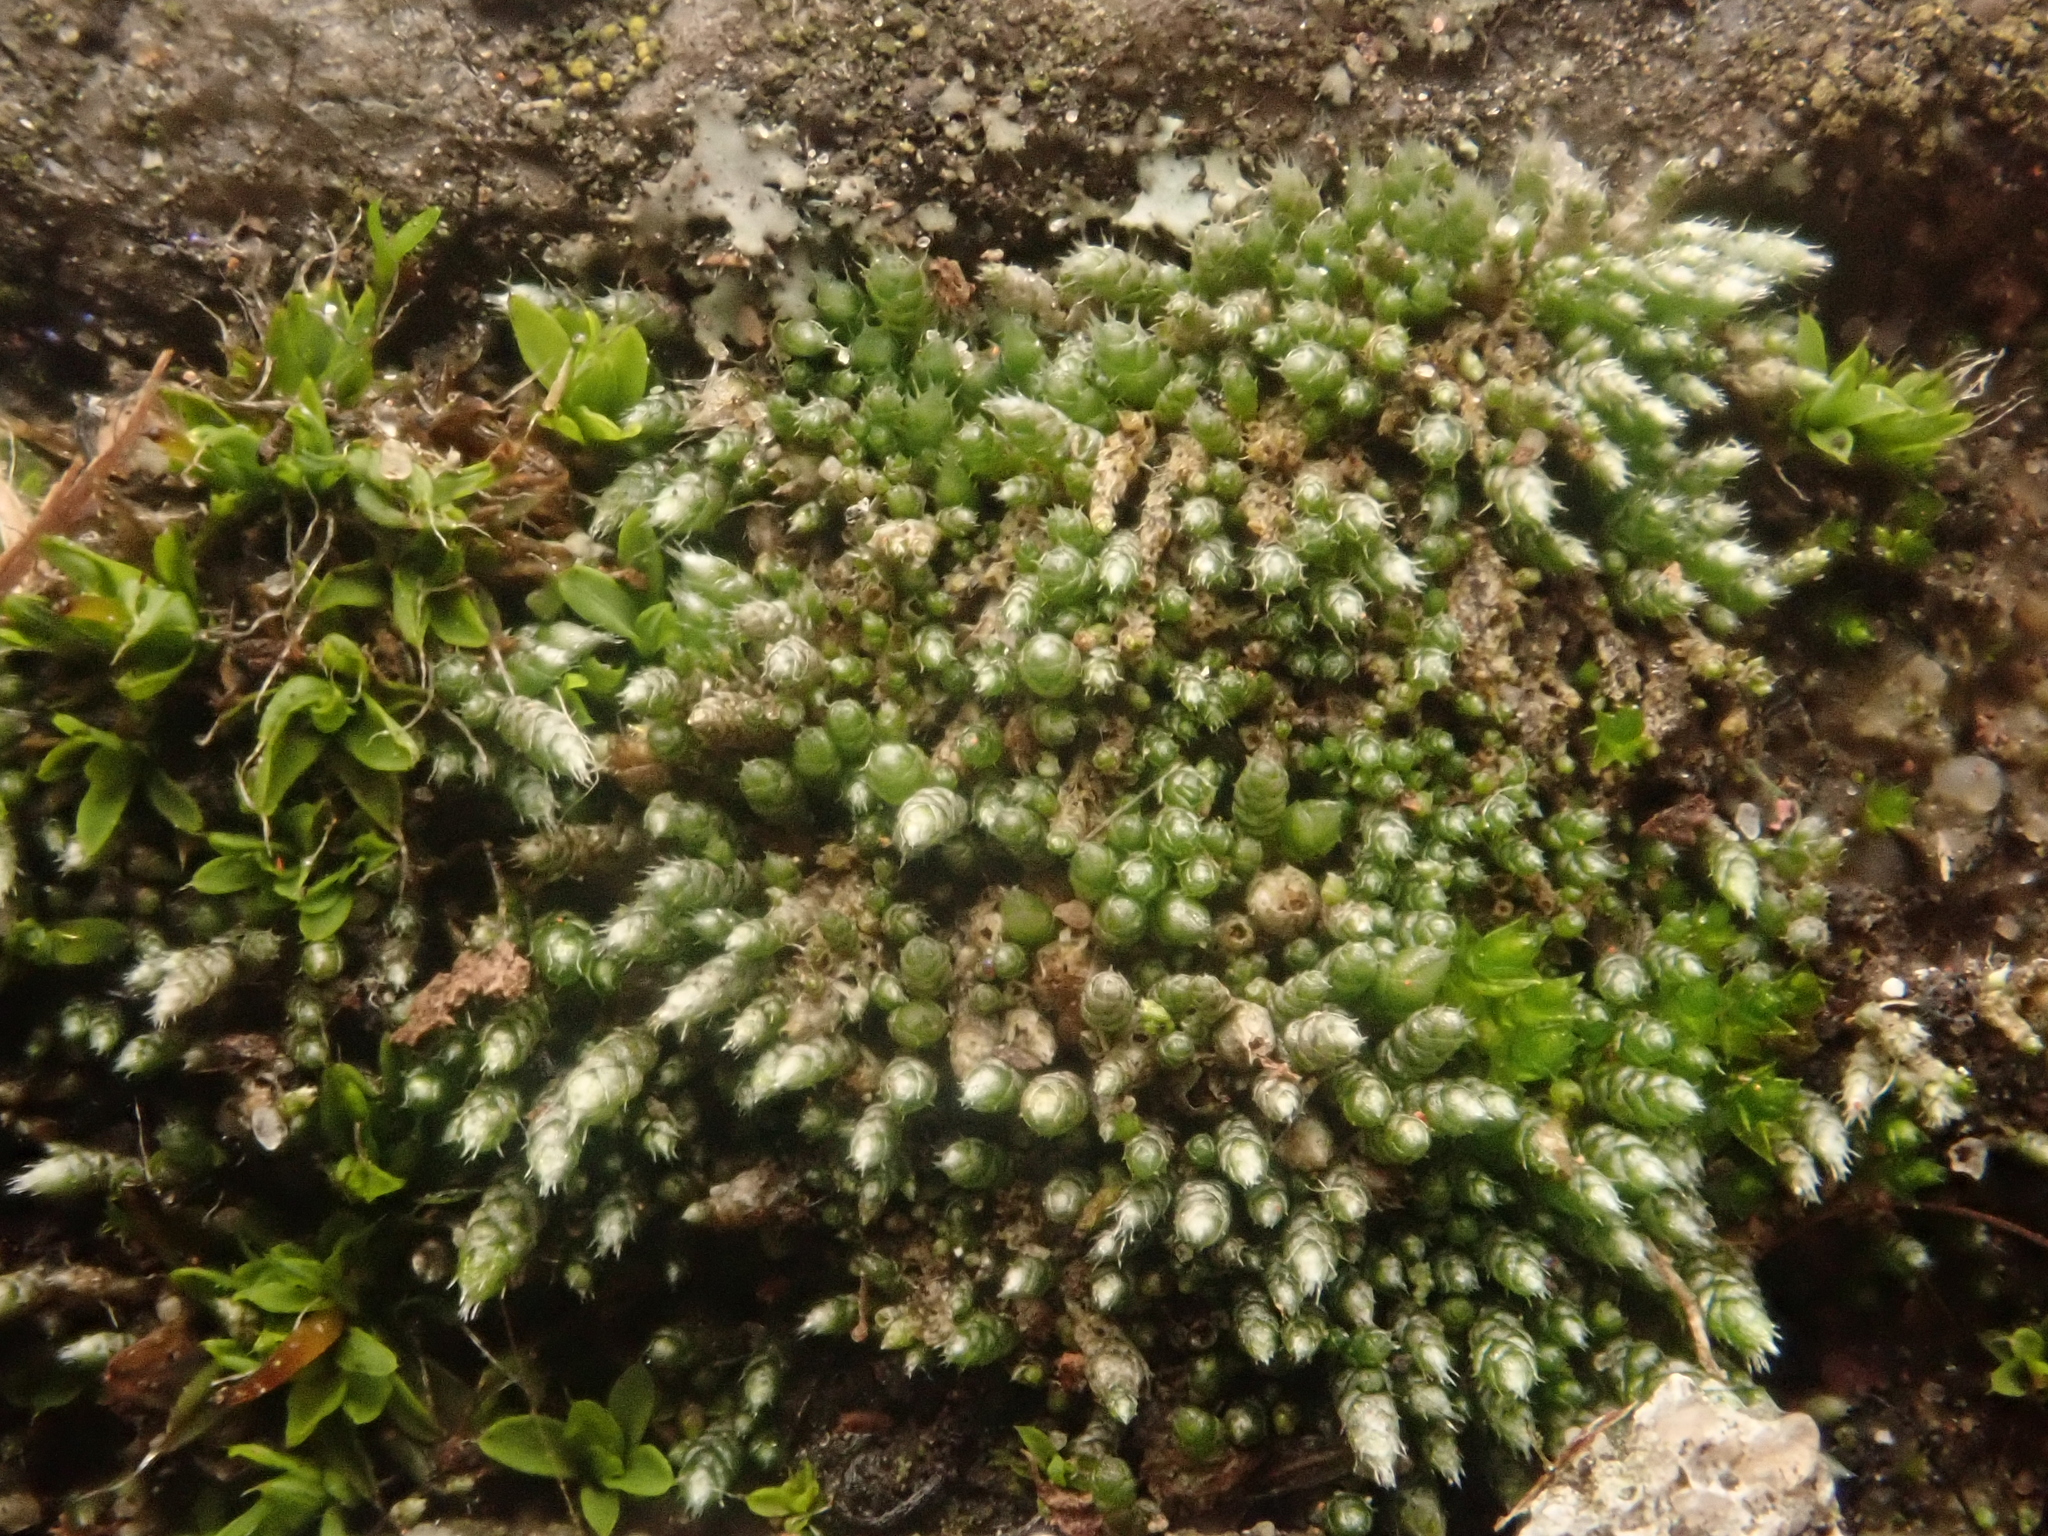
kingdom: Plantae
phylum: Bryophyta
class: Bryopsida
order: Bryales
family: Bryaceae
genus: Bryum
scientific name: Bryum argenteum
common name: Silver-moss
